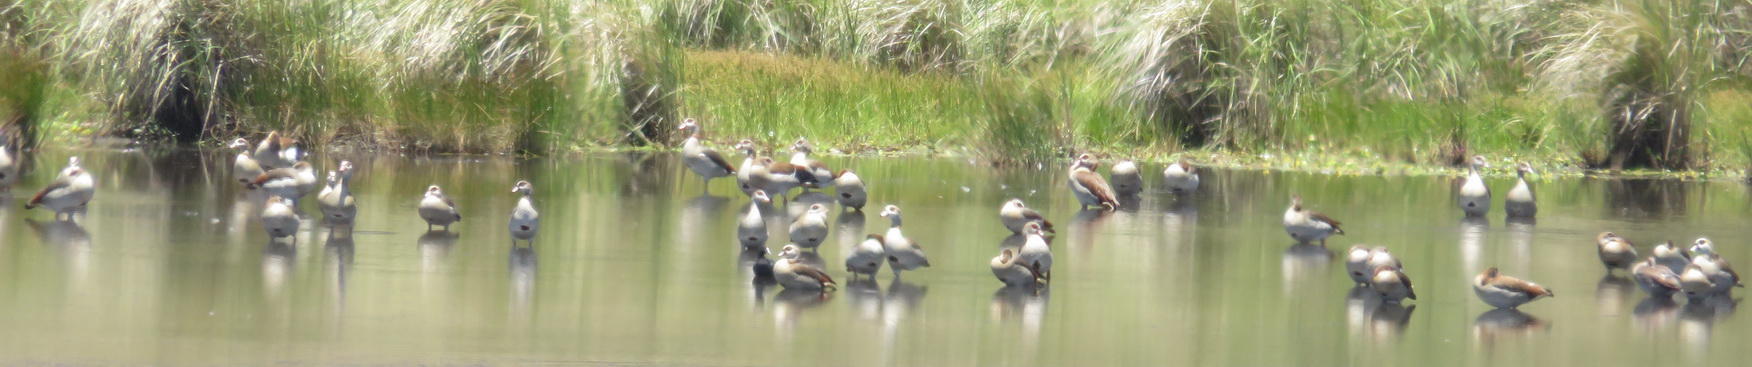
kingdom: Animalia
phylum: Chordata
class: Aves
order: Anseriformes
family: Anatidae
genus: Alopochen
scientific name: Alopochen aegyptiaca
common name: Egyptian goose
